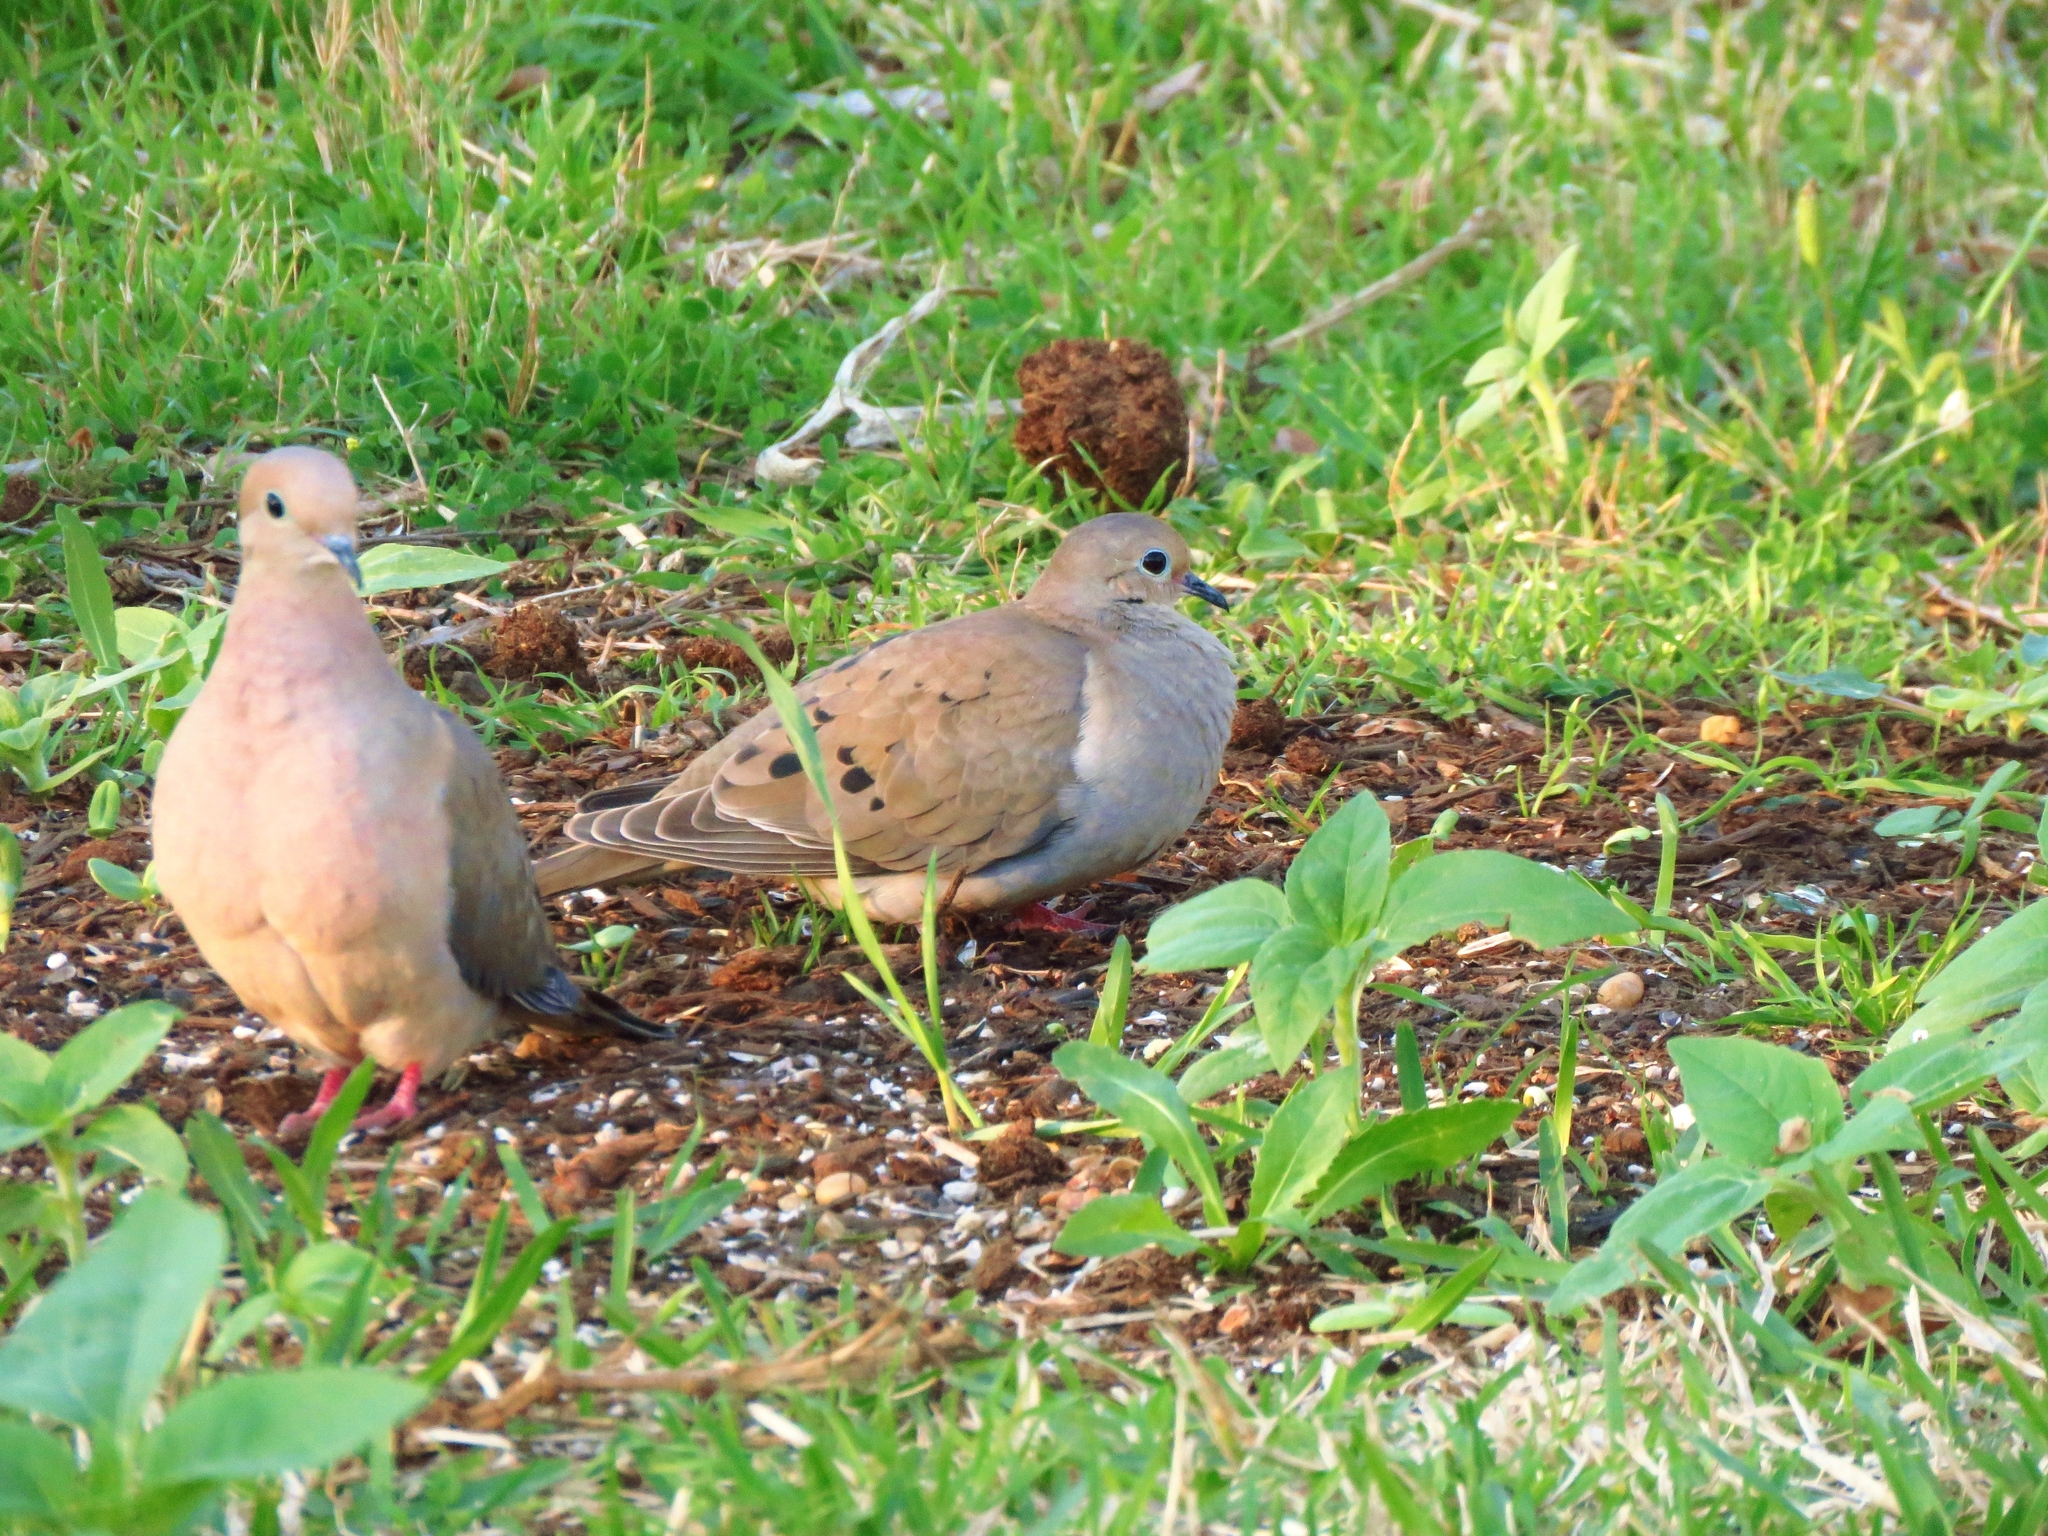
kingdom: Animalia
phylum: Chordata
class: Aves
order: Columbiformes
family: Columbidae
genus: Zenaida
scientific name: Zenaida macroura
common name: Mourning dove
